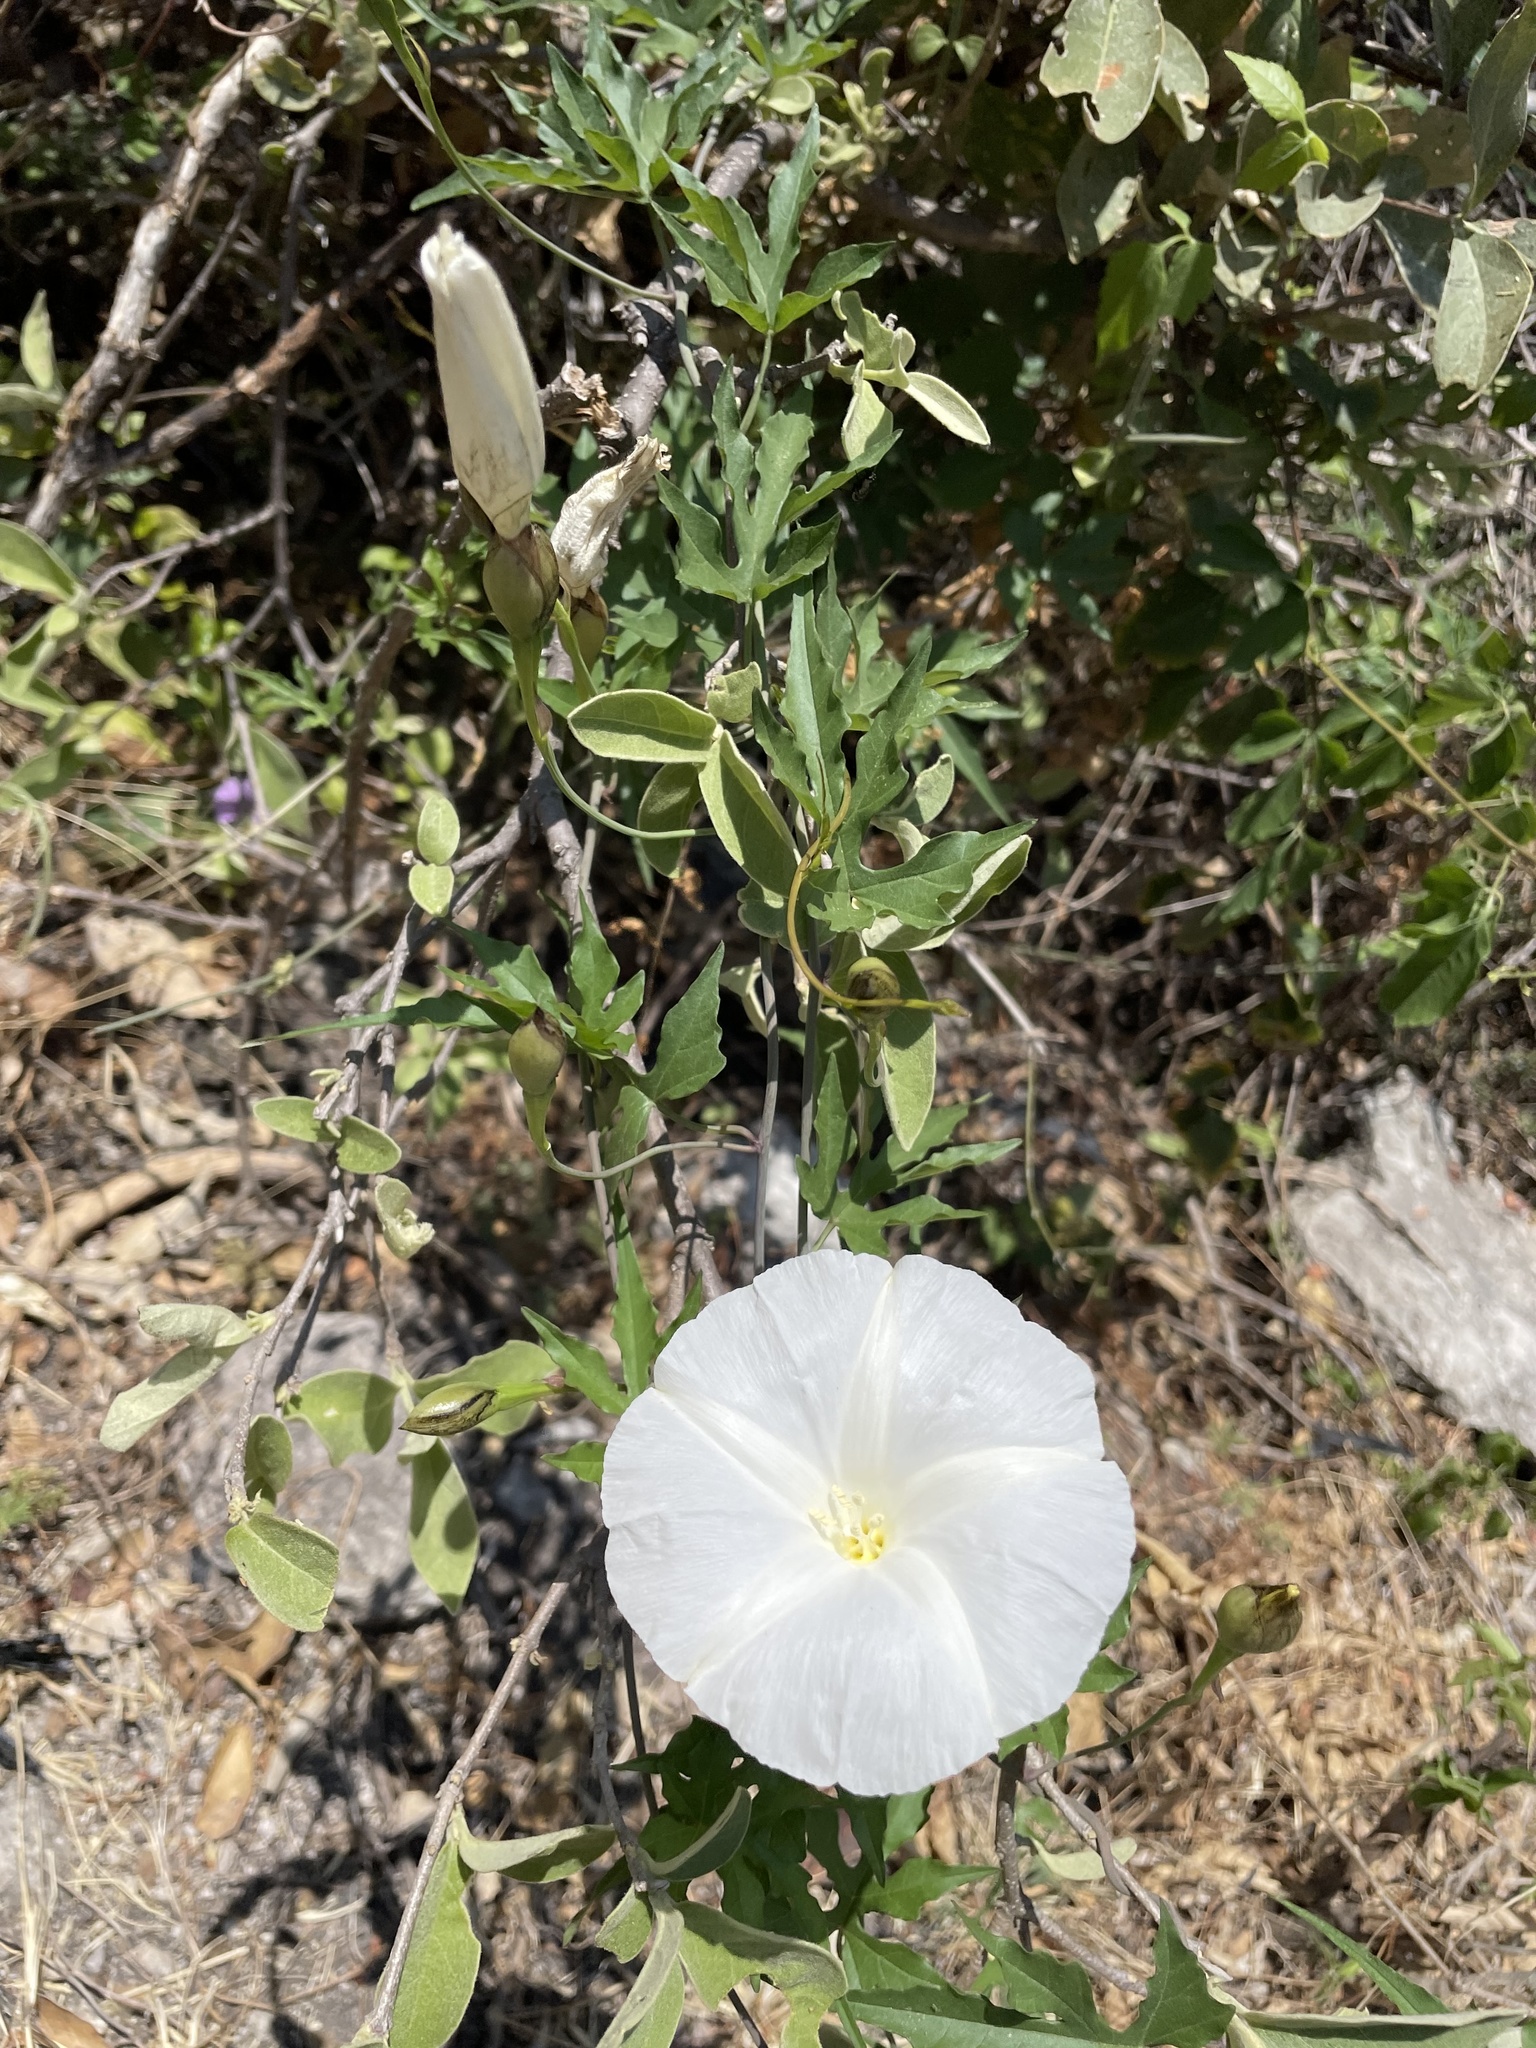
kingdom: Plantae
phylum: Tracheophyta
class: Magnoliopsida
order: Solanales
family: Convolvulaceae
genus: Operculina
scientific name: Operculina pinnatifida
